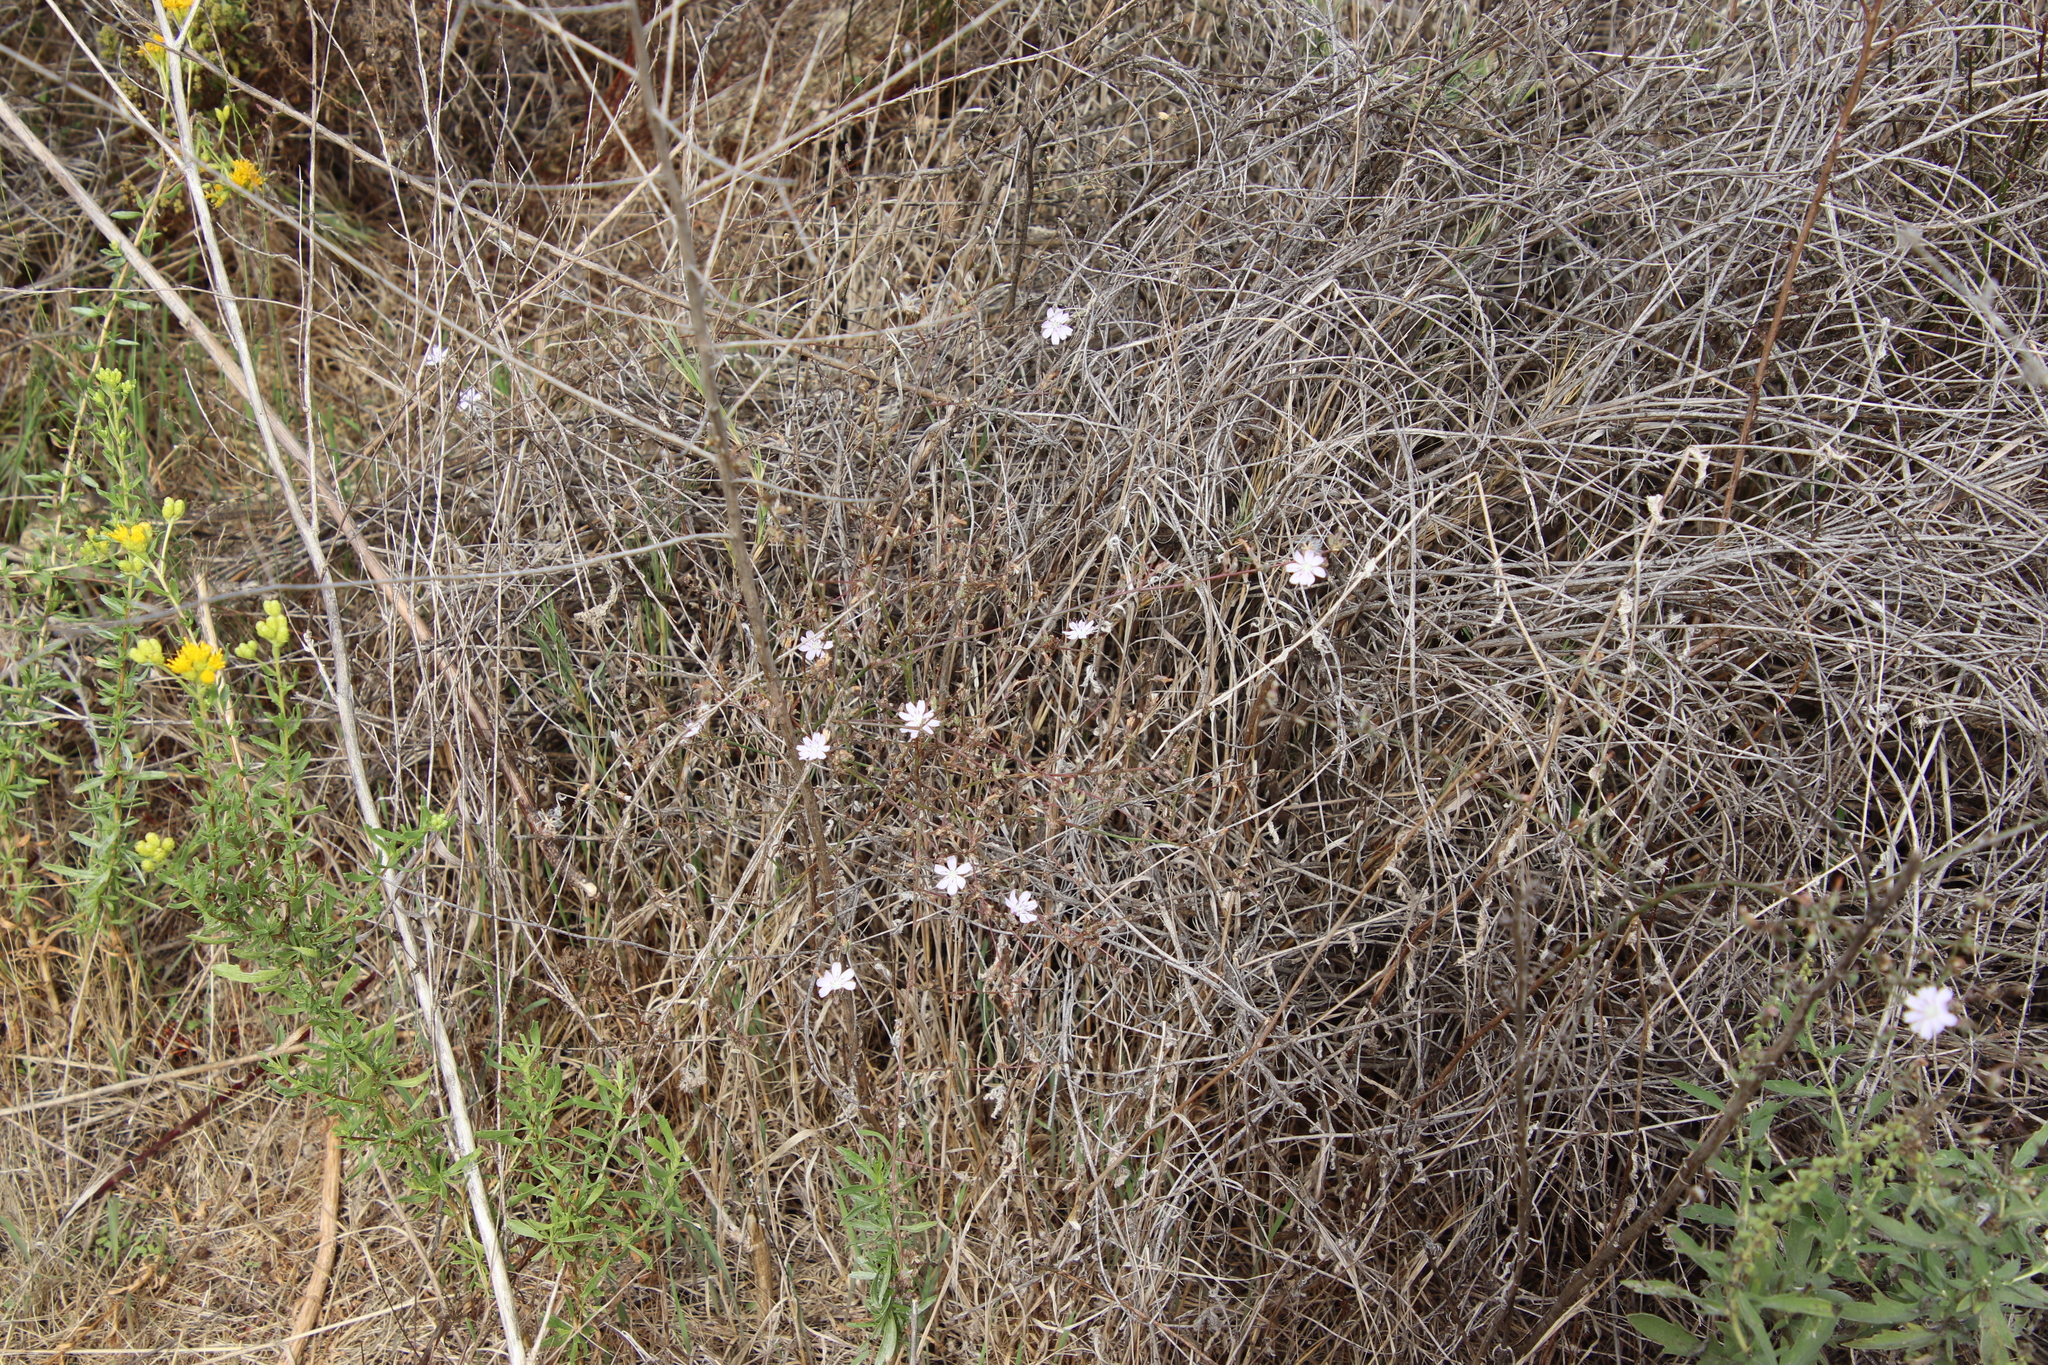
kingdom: Plantae
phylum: Tracheophyta
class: Magnoliopsida
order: Asterales
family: Asteraceae
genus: Stephanomeria
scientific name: Stephanomeria diegensis
